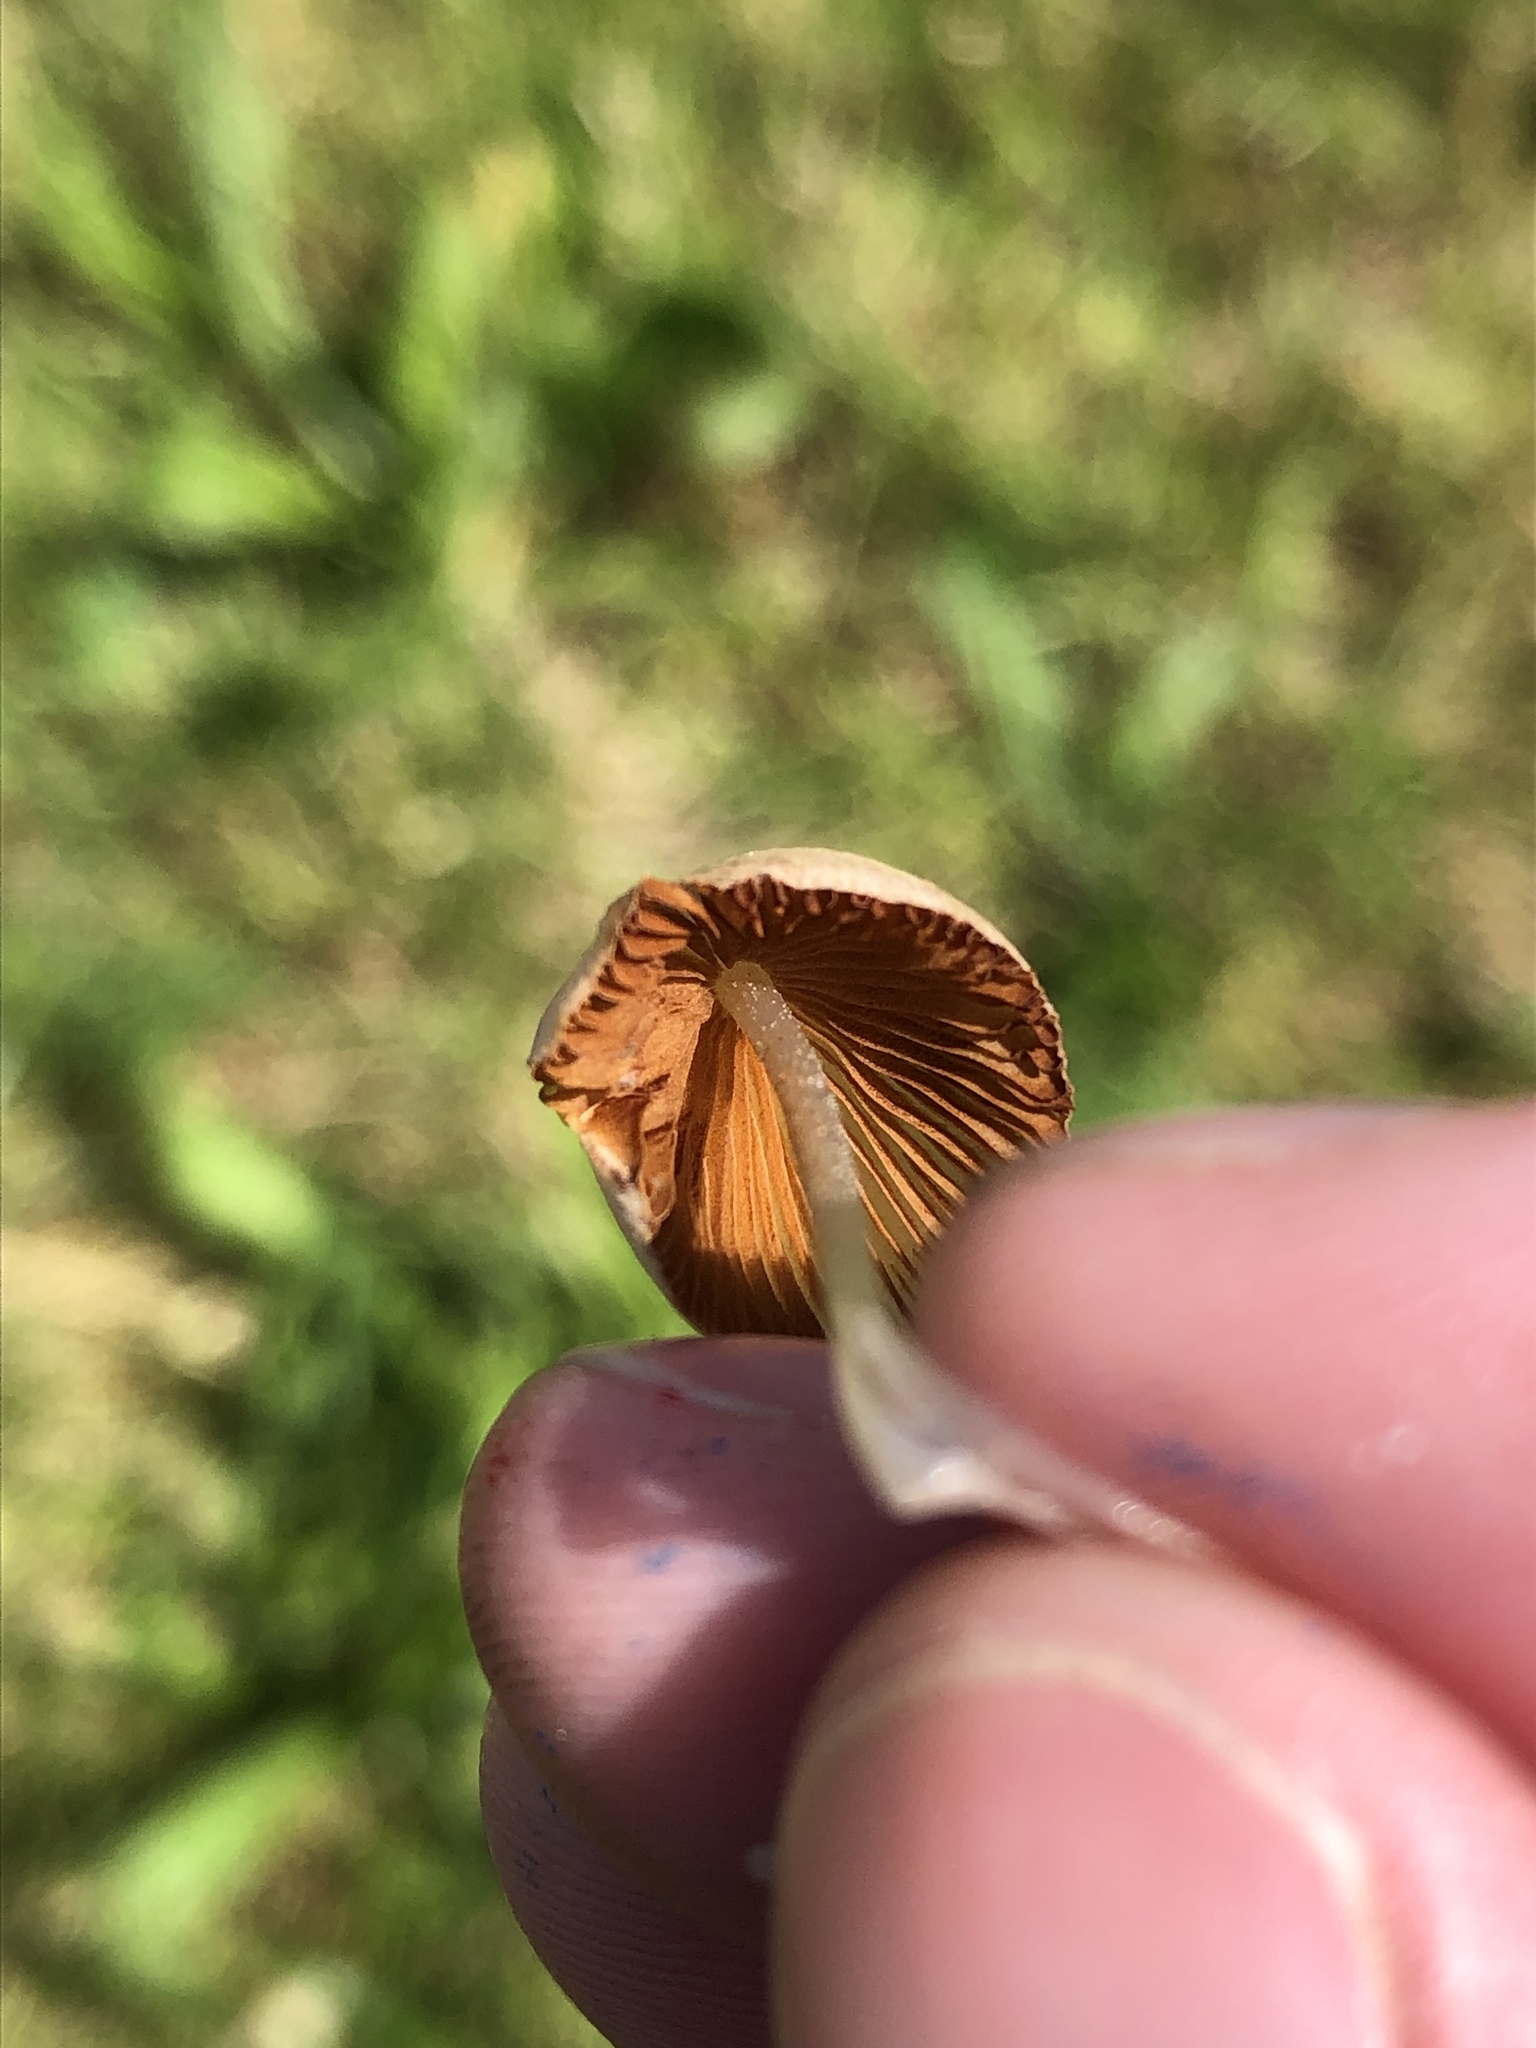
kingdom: Fungi
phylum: Basidiomycota
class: Agaricomycetes
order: Agaricales
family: Bolbitiaceae
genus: Conocybe
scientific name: Conocybe apala
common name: Milky conecap
